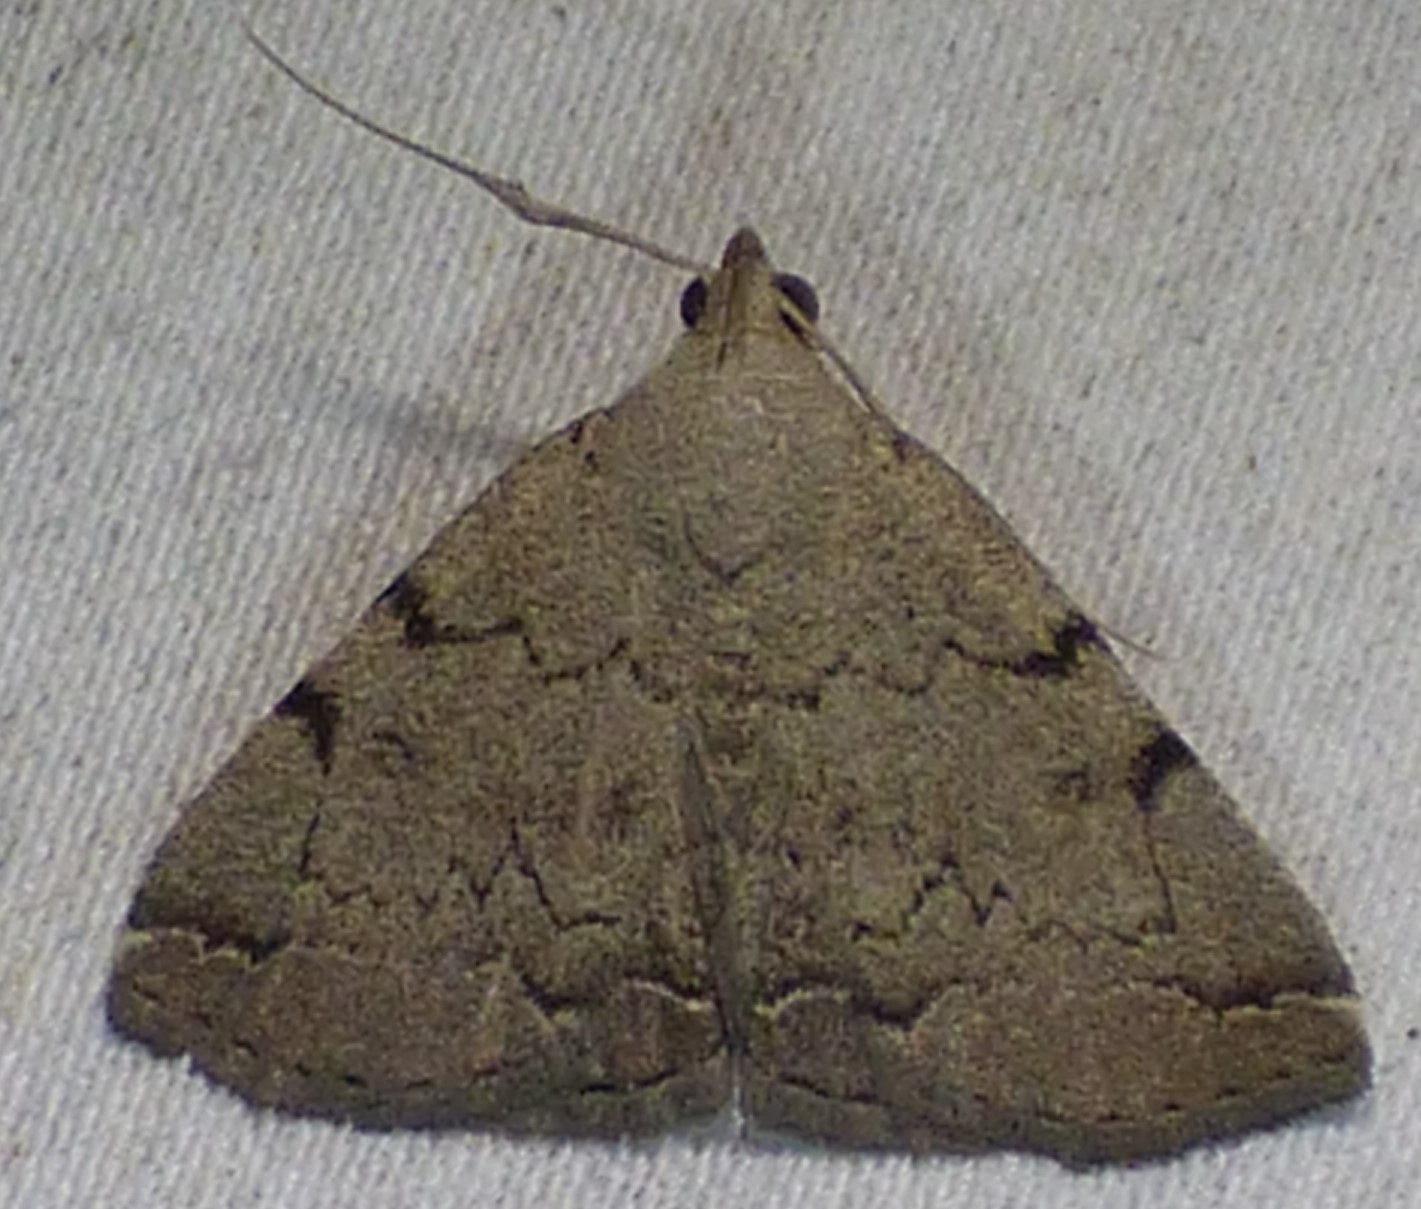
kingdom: Animalia
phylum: Arthropoda
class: Insecta
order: Lepidoptera
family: Erebidae
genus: Zanclognatha
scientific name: Zanclognatha theralis
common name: Flagged fan-foot
